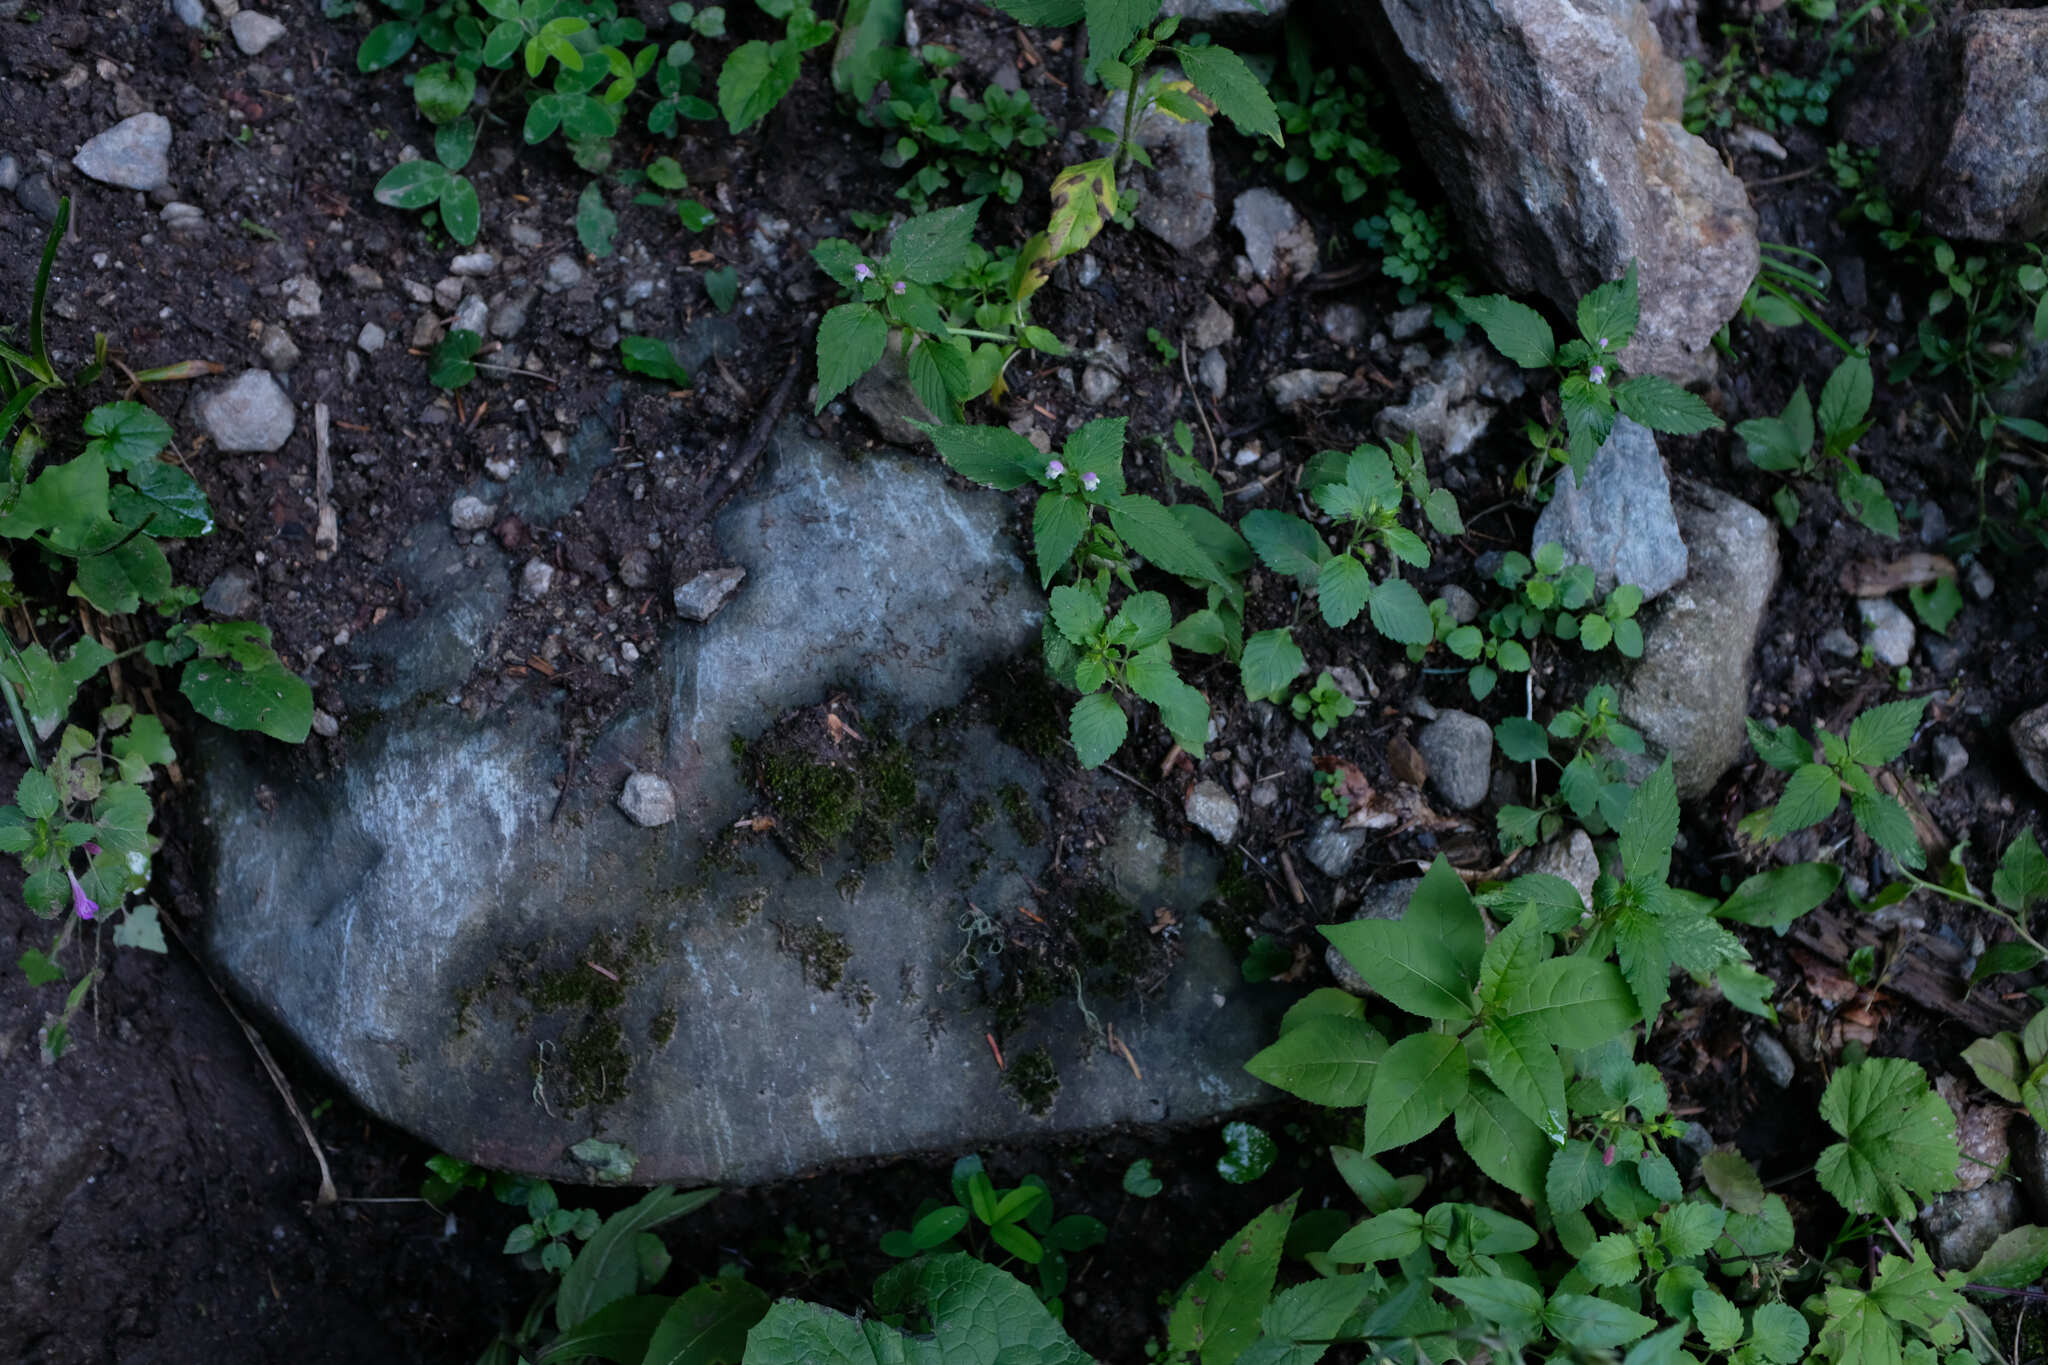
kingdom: Plantae
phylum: Tracheophyta
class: Magnoliopsida
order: Lamiales
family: Lamiaceae
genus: Galeopsis
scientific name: Galeopsis bifida
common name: Bifid hemp-nettle
